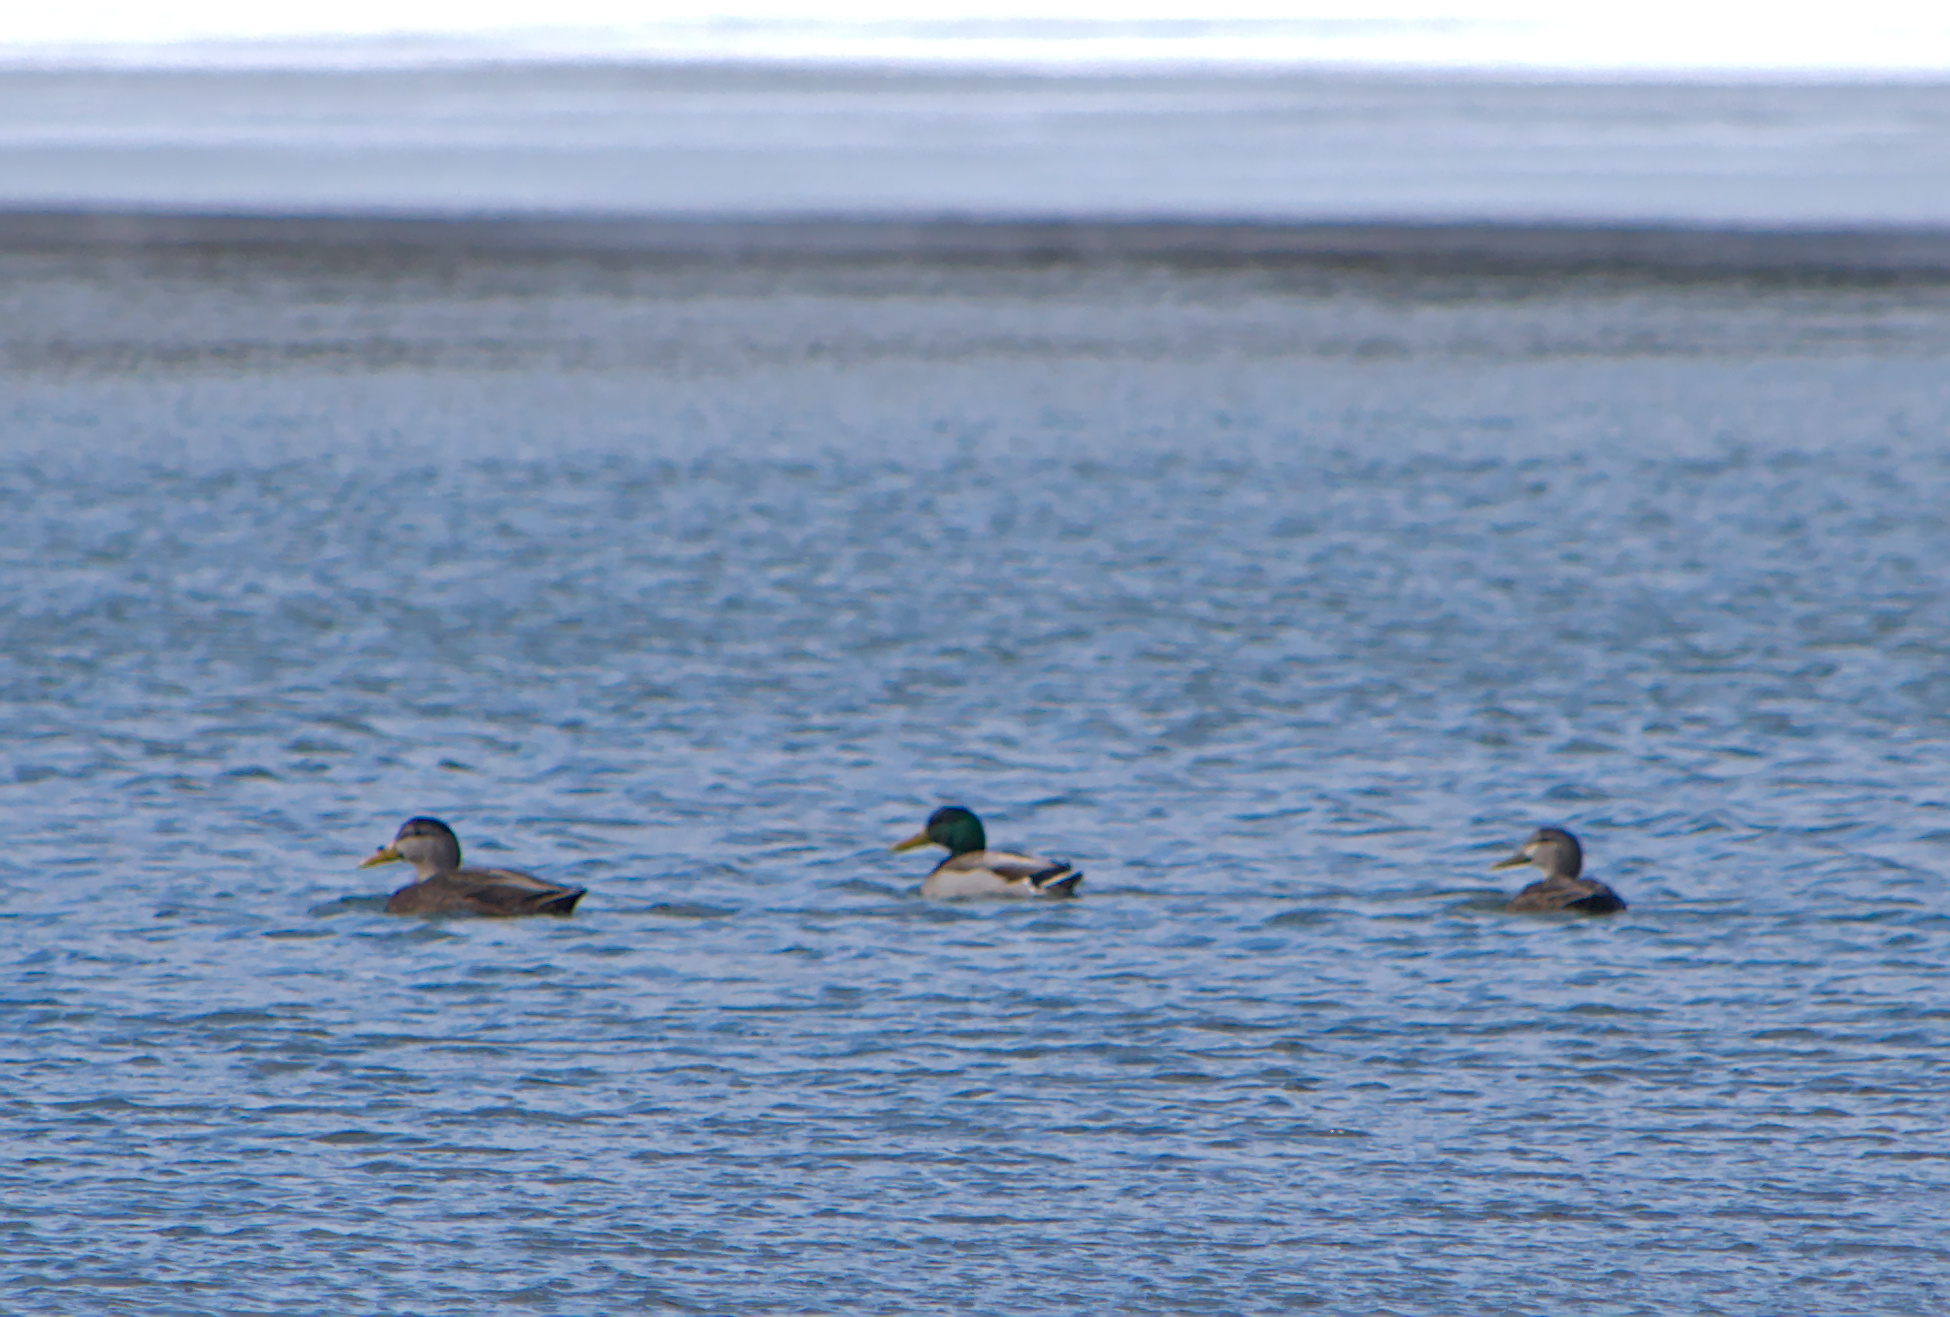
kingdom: Animalia
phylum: Chordata
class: Aves
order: Anseriformes
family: Anatidae
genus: Anas
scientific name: Anas platyrhynchos
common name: Mallard
